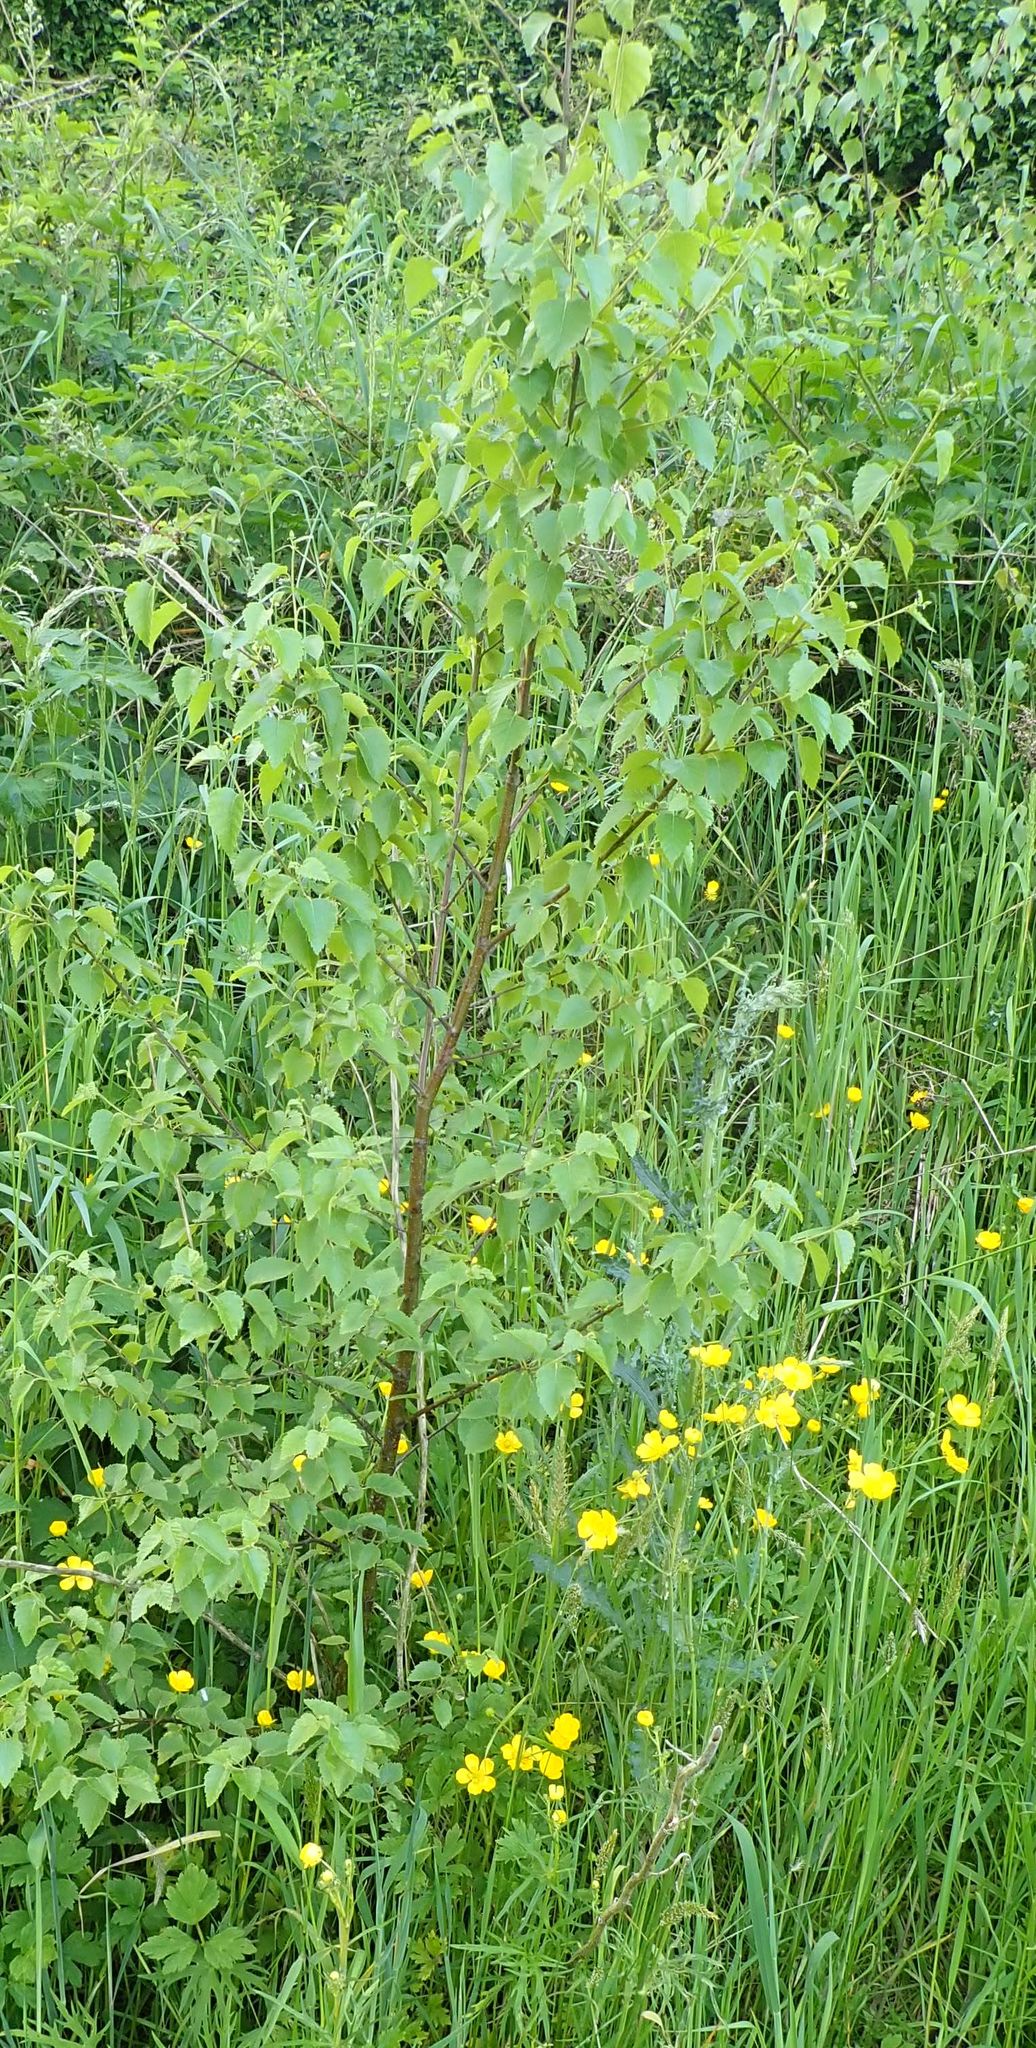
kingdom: Plantae
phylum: Tracheophyta
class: Magnoliopsida
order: Fagales
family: Betulaceae
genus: Betula
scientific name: Betula pendula
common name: Silver birch
